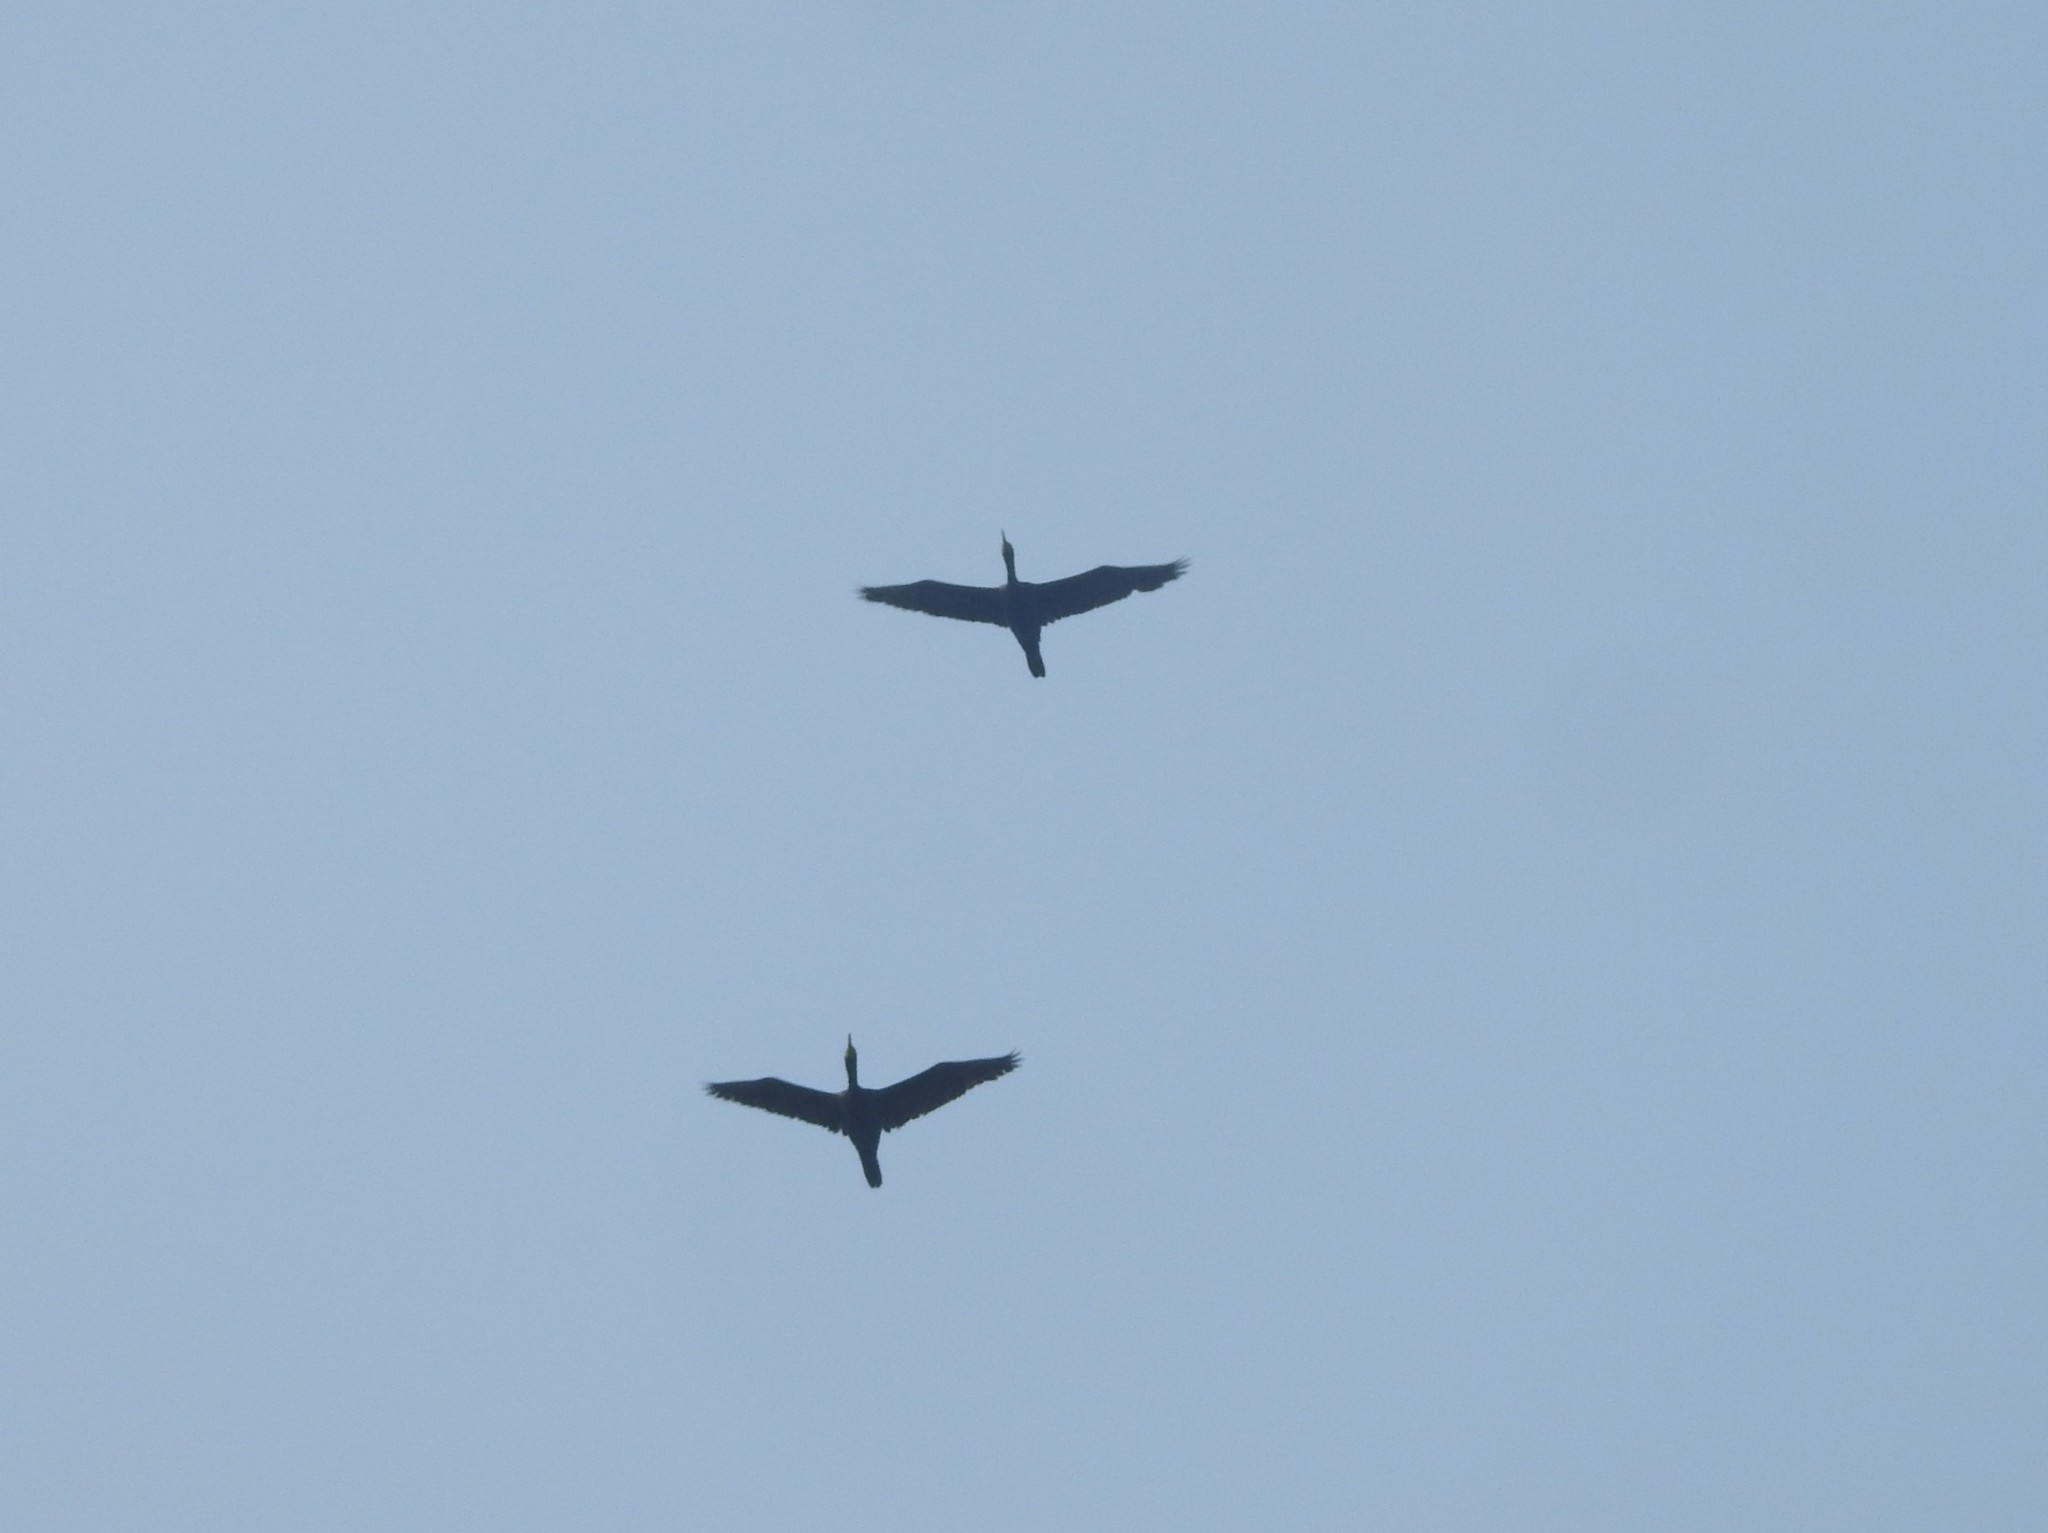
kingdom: Animalia
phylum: Chordata
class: Aves
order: Suliformes
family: Phalacrocoracidae
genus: Phalacrocorax
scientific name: Phalacrocorax fuscicollis
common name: Indian cormorant
